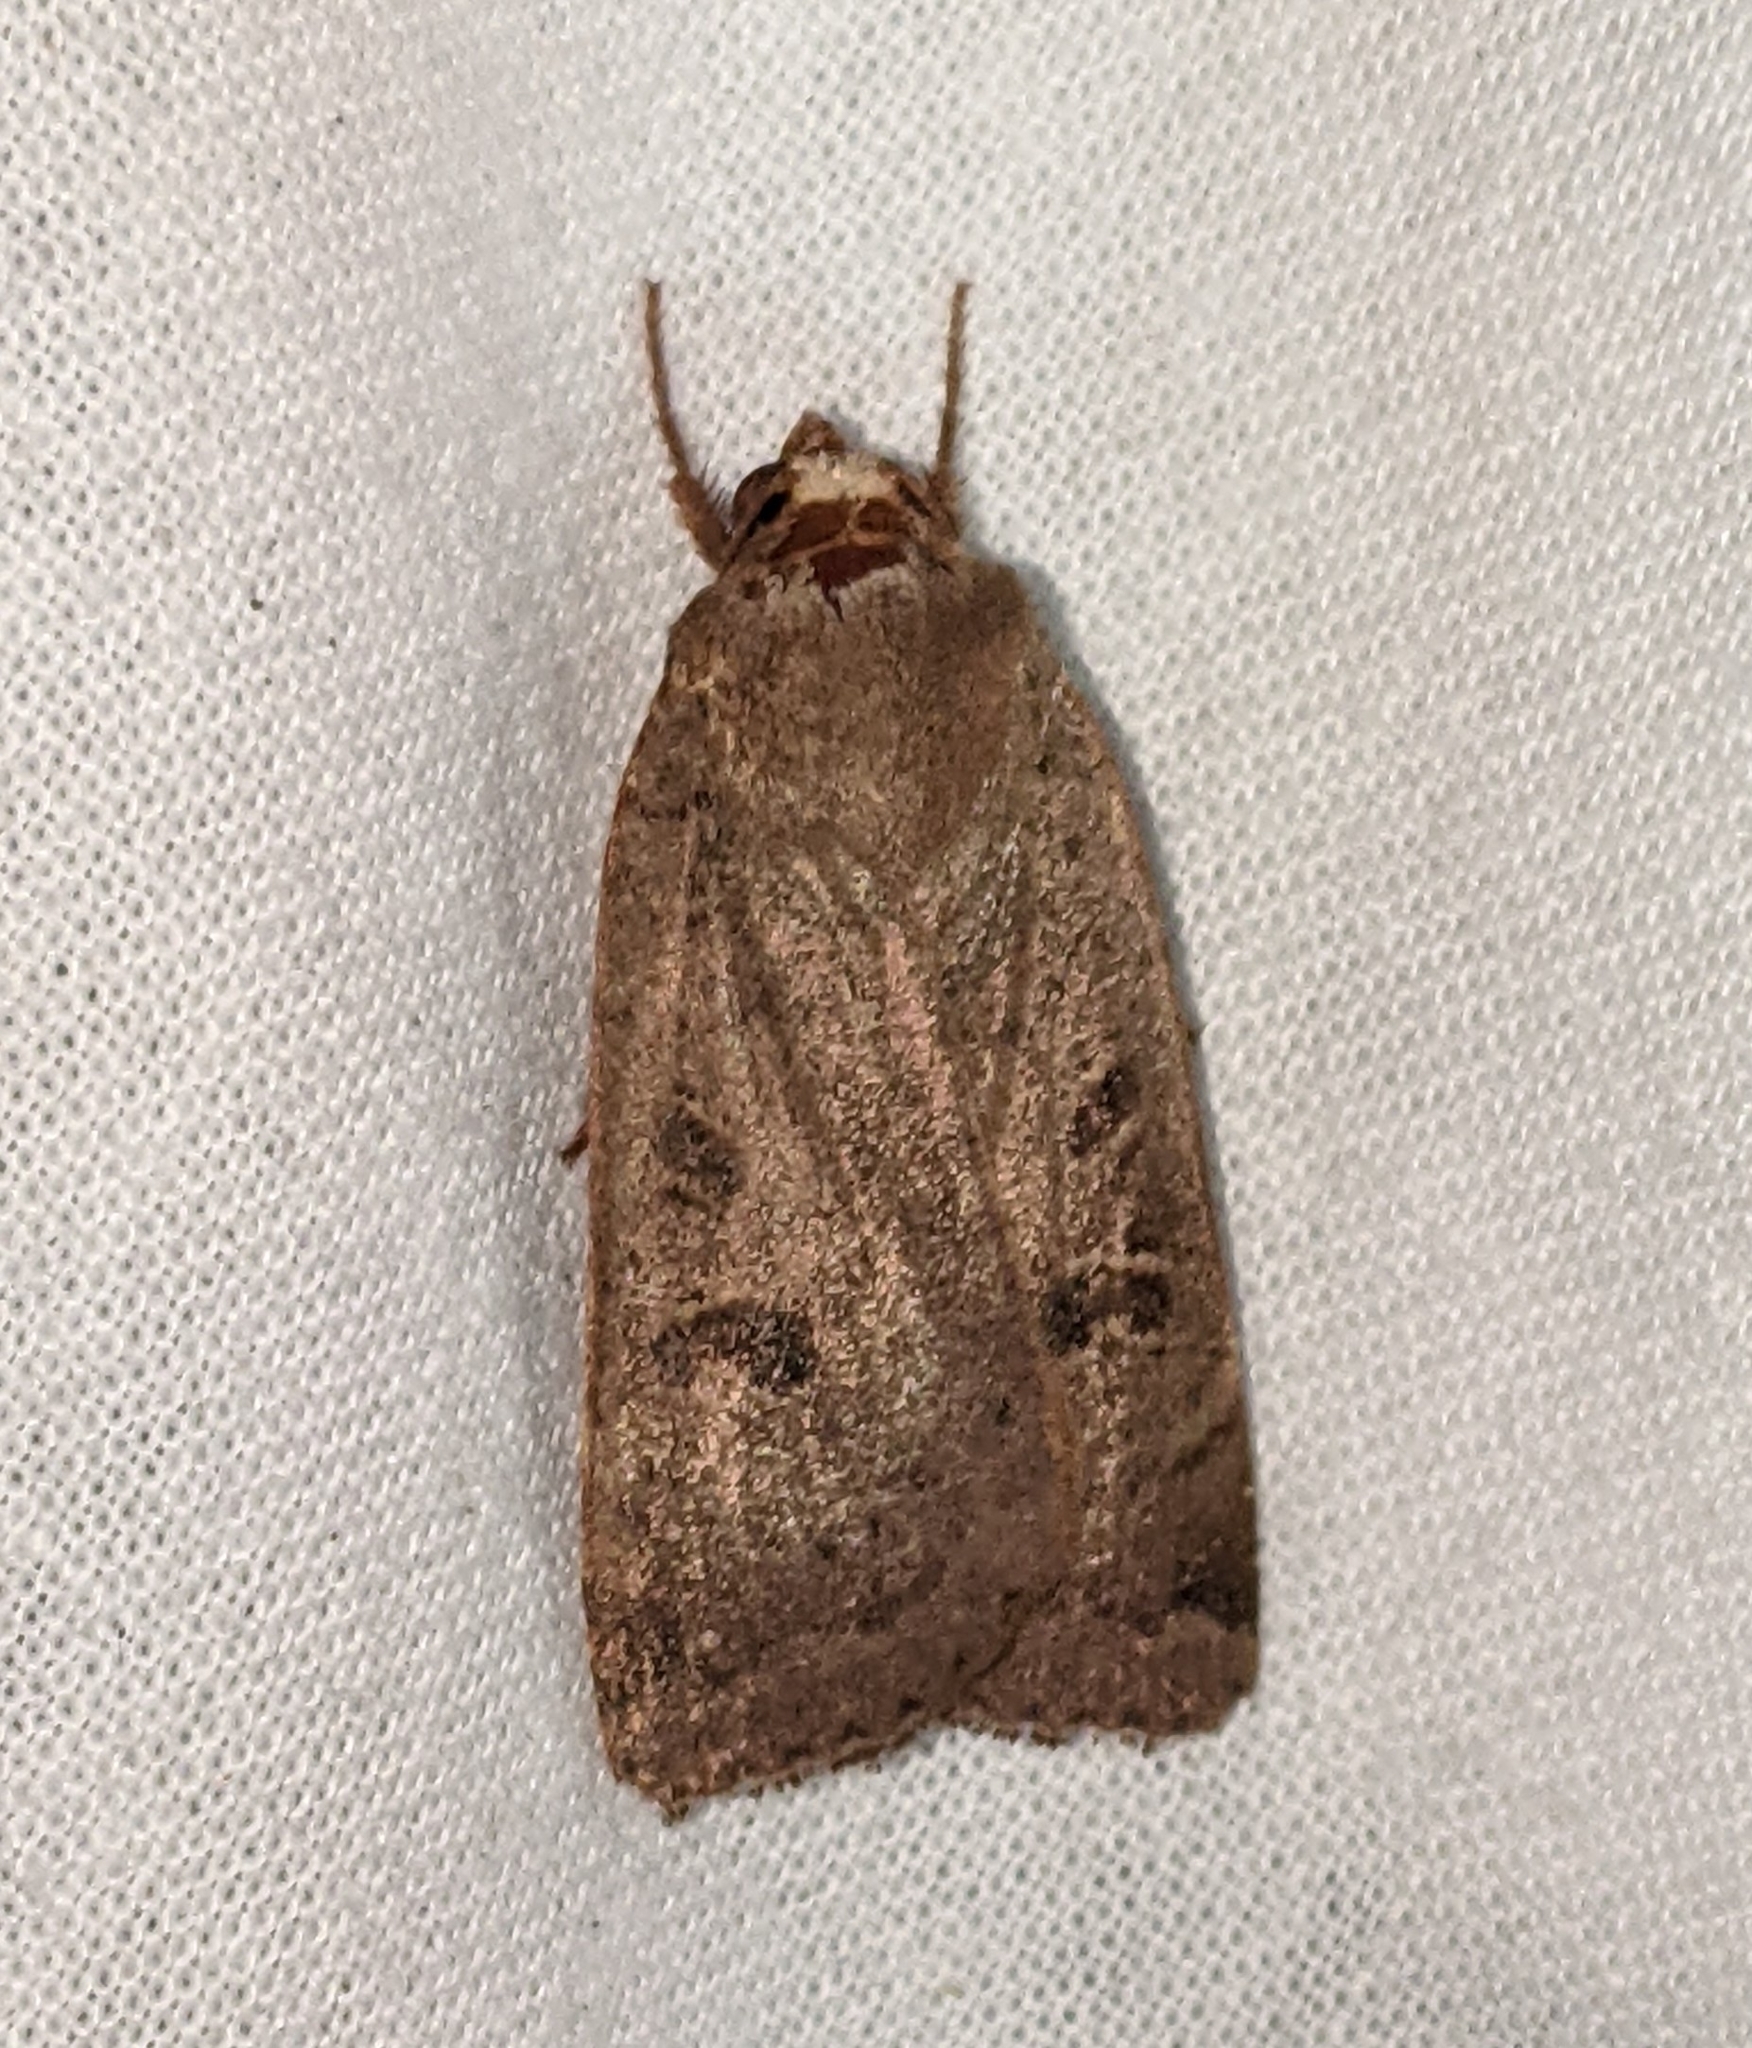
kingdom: Animalia
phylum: Arthropoda
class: Insecta
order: Lepidoptera
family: Noctuidae
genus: Noctua
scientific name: Noctua comes
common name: Lesser yellow underwing
